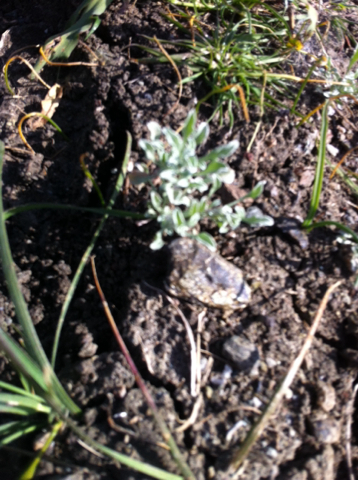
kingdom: Plantae
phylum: Tracheophyta
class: Magnoliopsida
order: Asterales
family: Asteraceae
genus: Hesperevax
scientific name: Hesperevax sparsiflora
